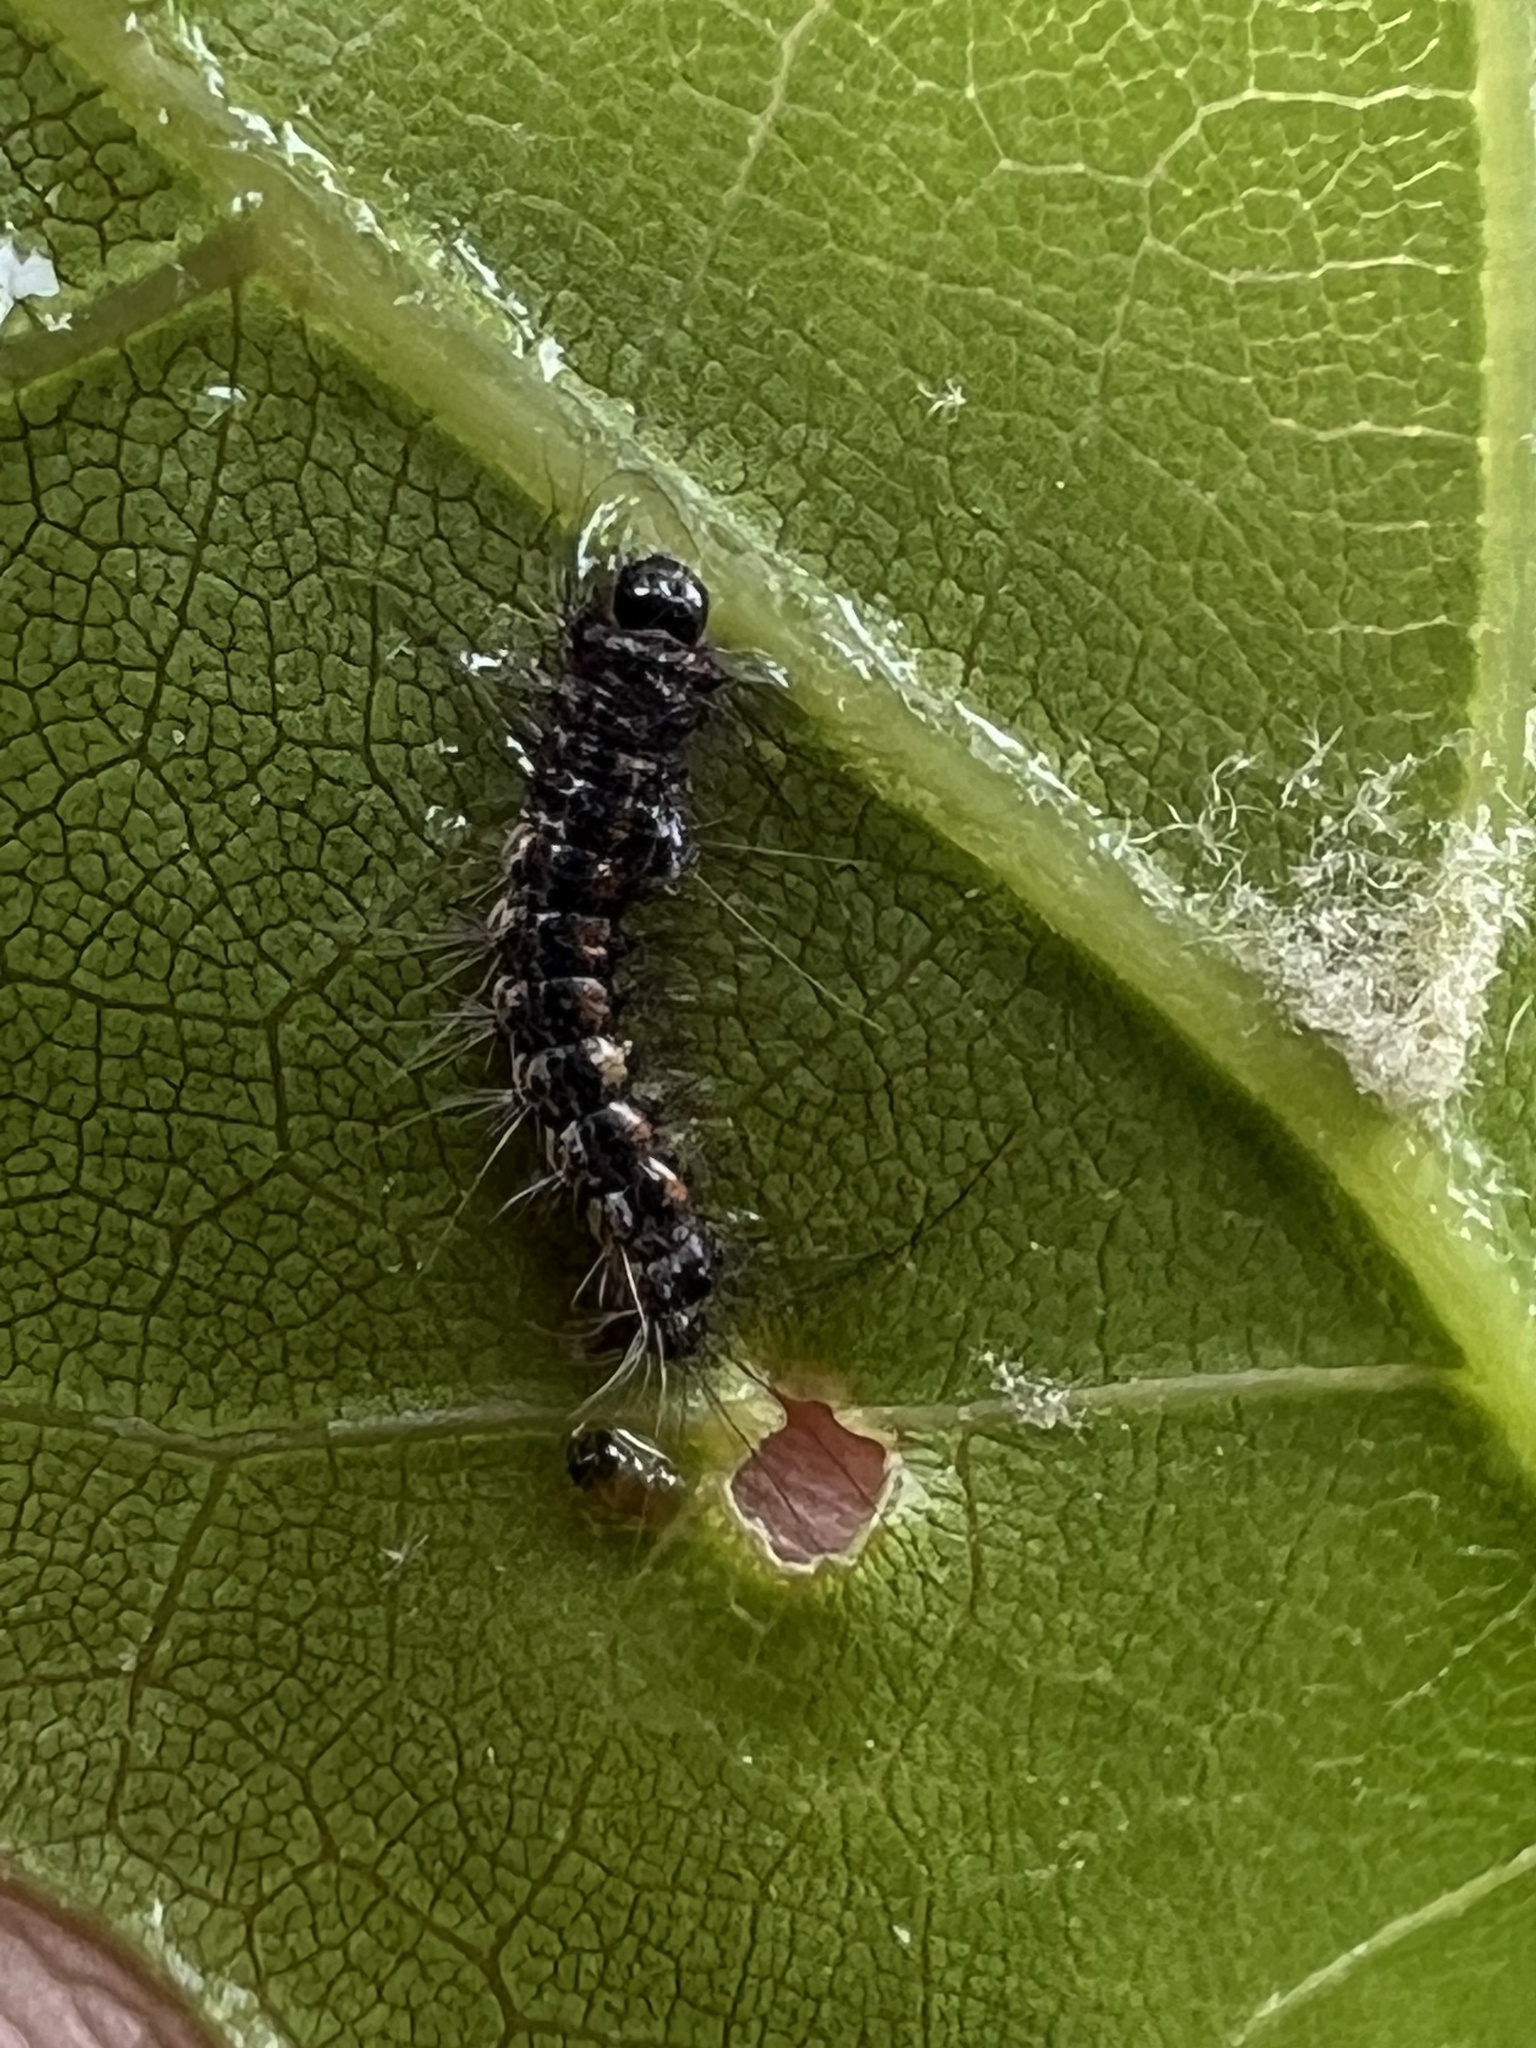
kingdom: Animalia
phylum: Arthropoda
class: Insecta
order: Lepidoptera
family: Erebidae
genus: Lymantria
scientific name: Lymantria dispar
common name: Gypsy moth
